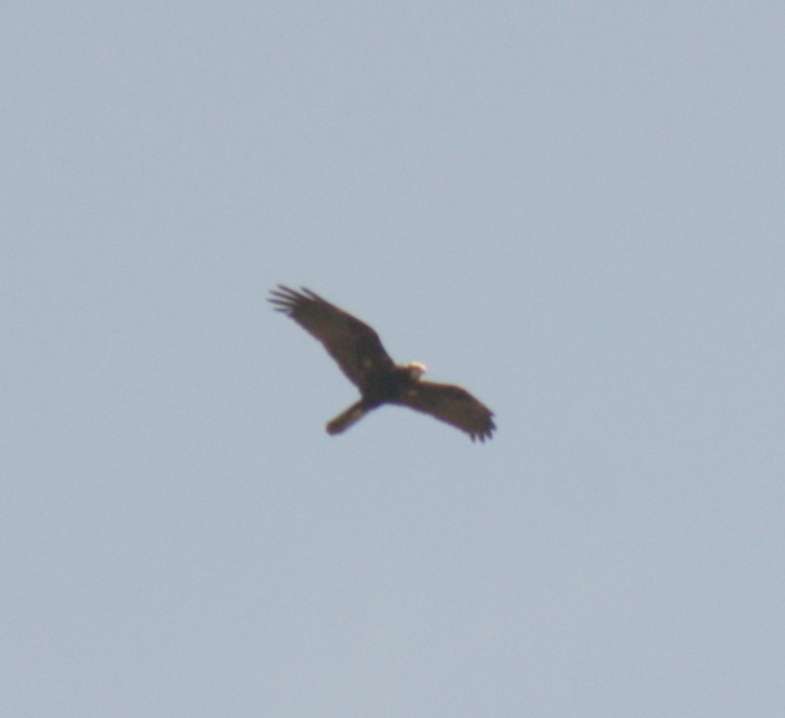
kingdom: Animalia
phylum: Chordata
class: Aves
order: Accipitriformes
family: Accipitridae
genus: Circus
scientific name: Circus aeruginosus
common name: Western marsh harrier
